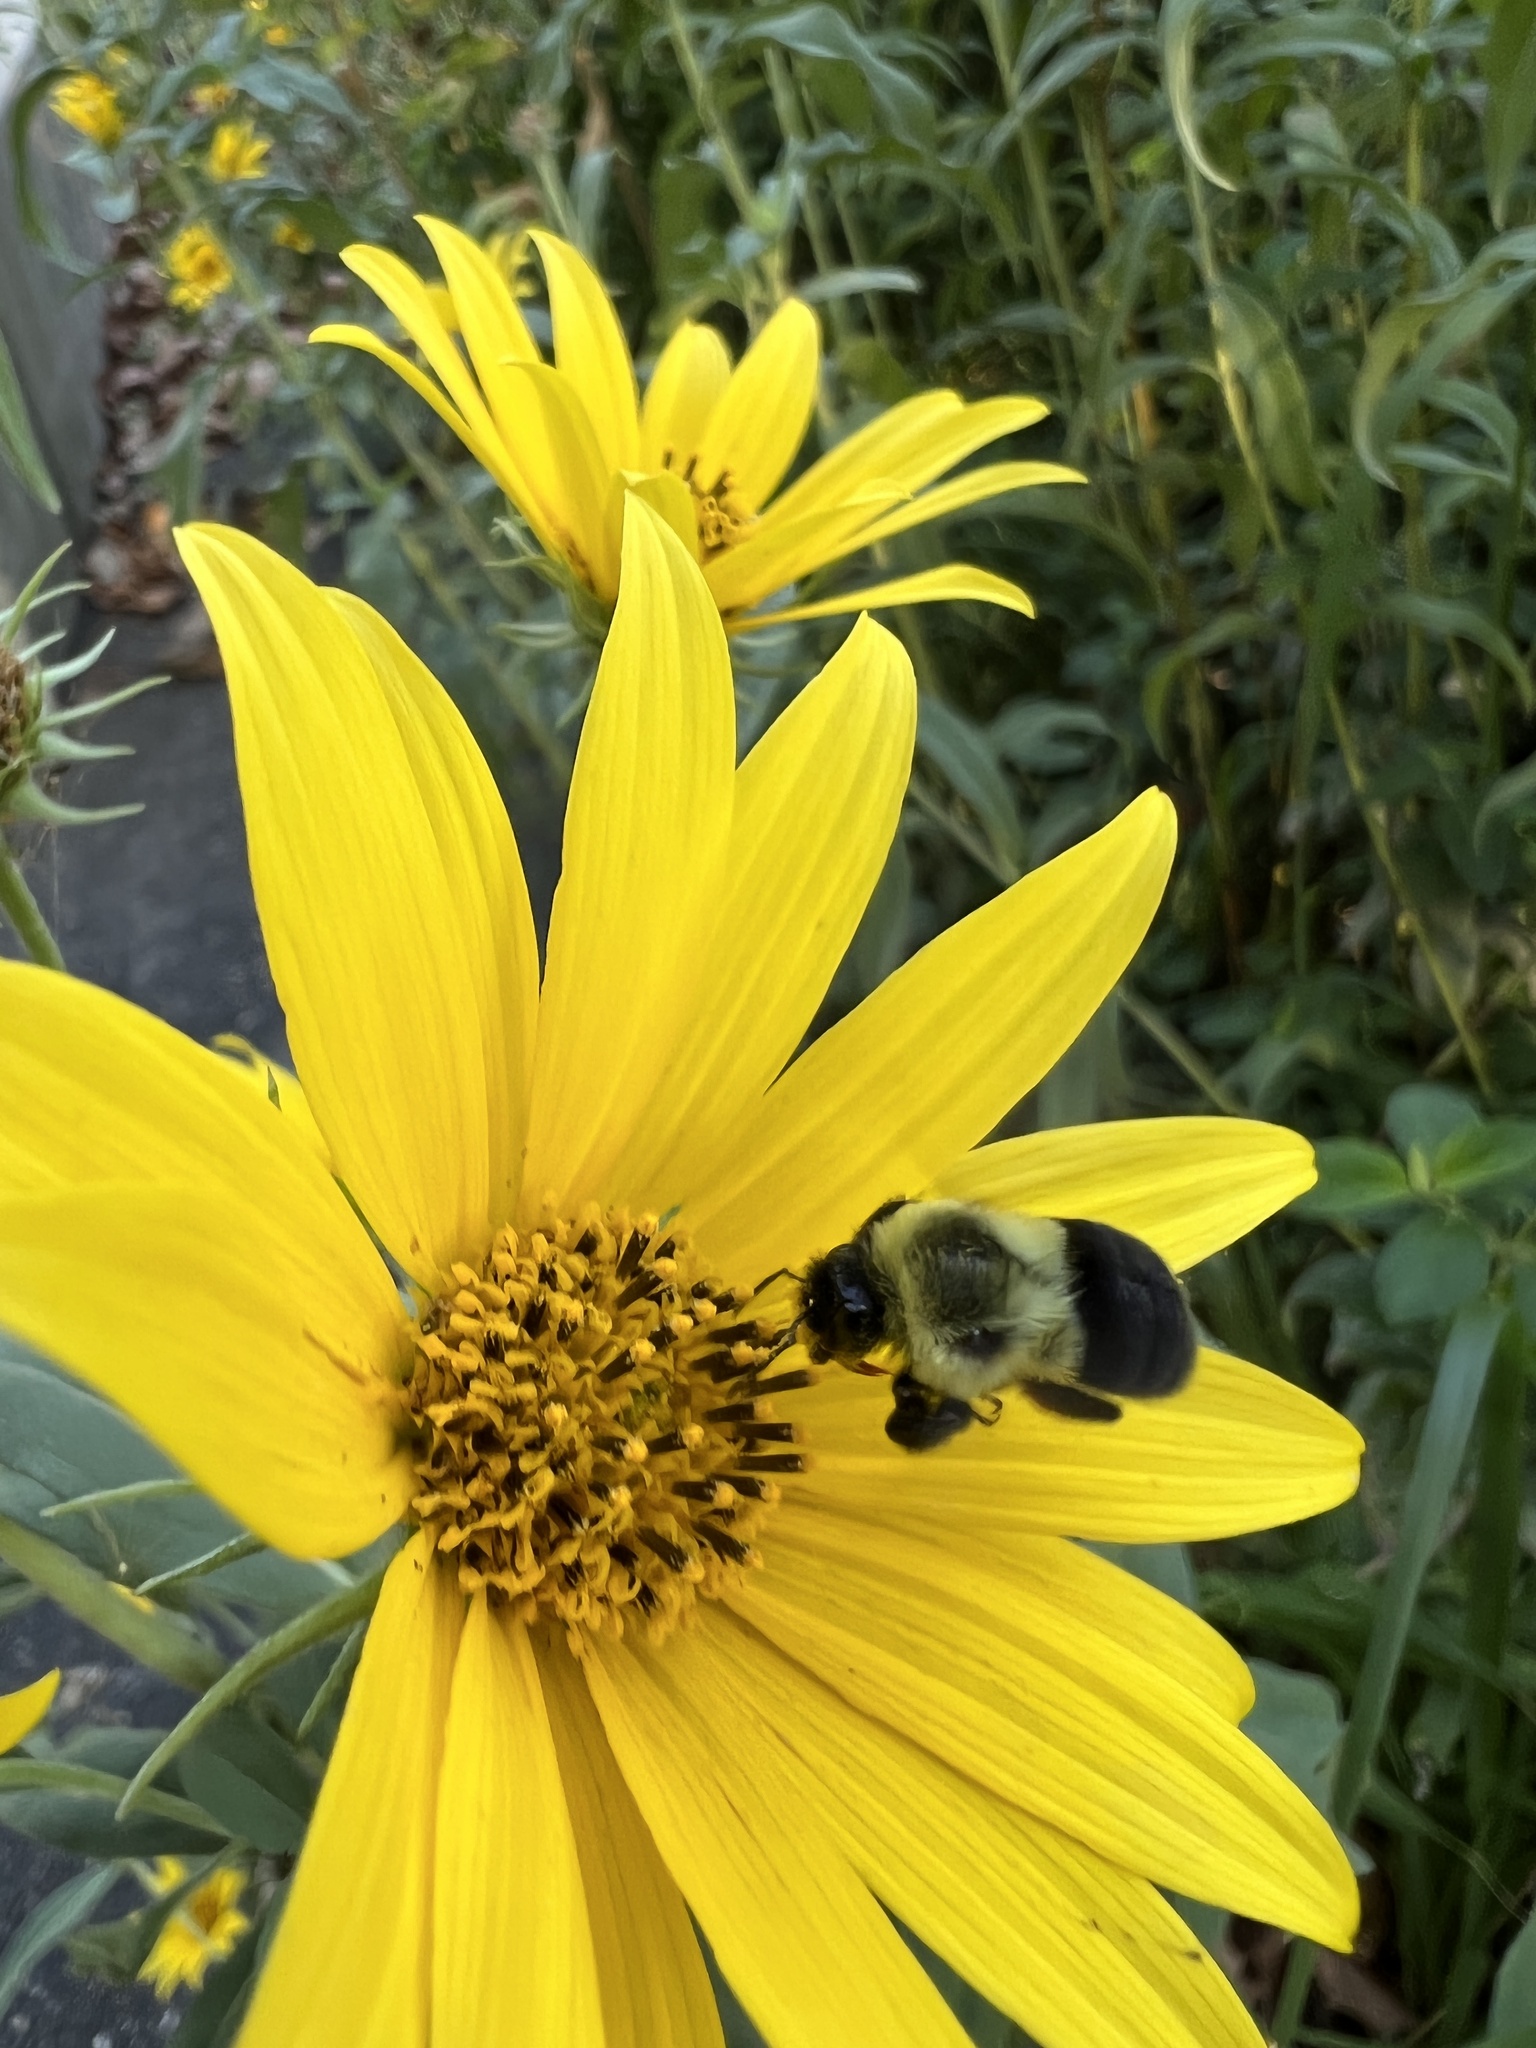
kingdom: Animalia
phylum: Arthropoda
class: Insecta
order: Hymenoptera
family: Apidae
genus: Bombus
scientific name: Bombus impatiens
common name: Common eastern bumble bee
